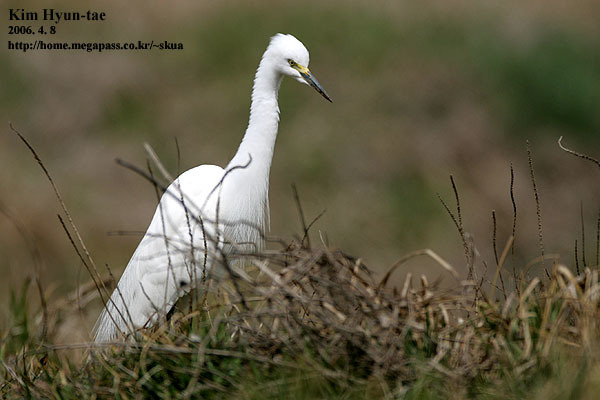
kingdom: Animalia
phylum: Chordata
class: Aves
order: Pelecaniformes
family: Ardeidae
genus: Egretta
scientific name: Egretta intermedia
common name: Intermediate egret
